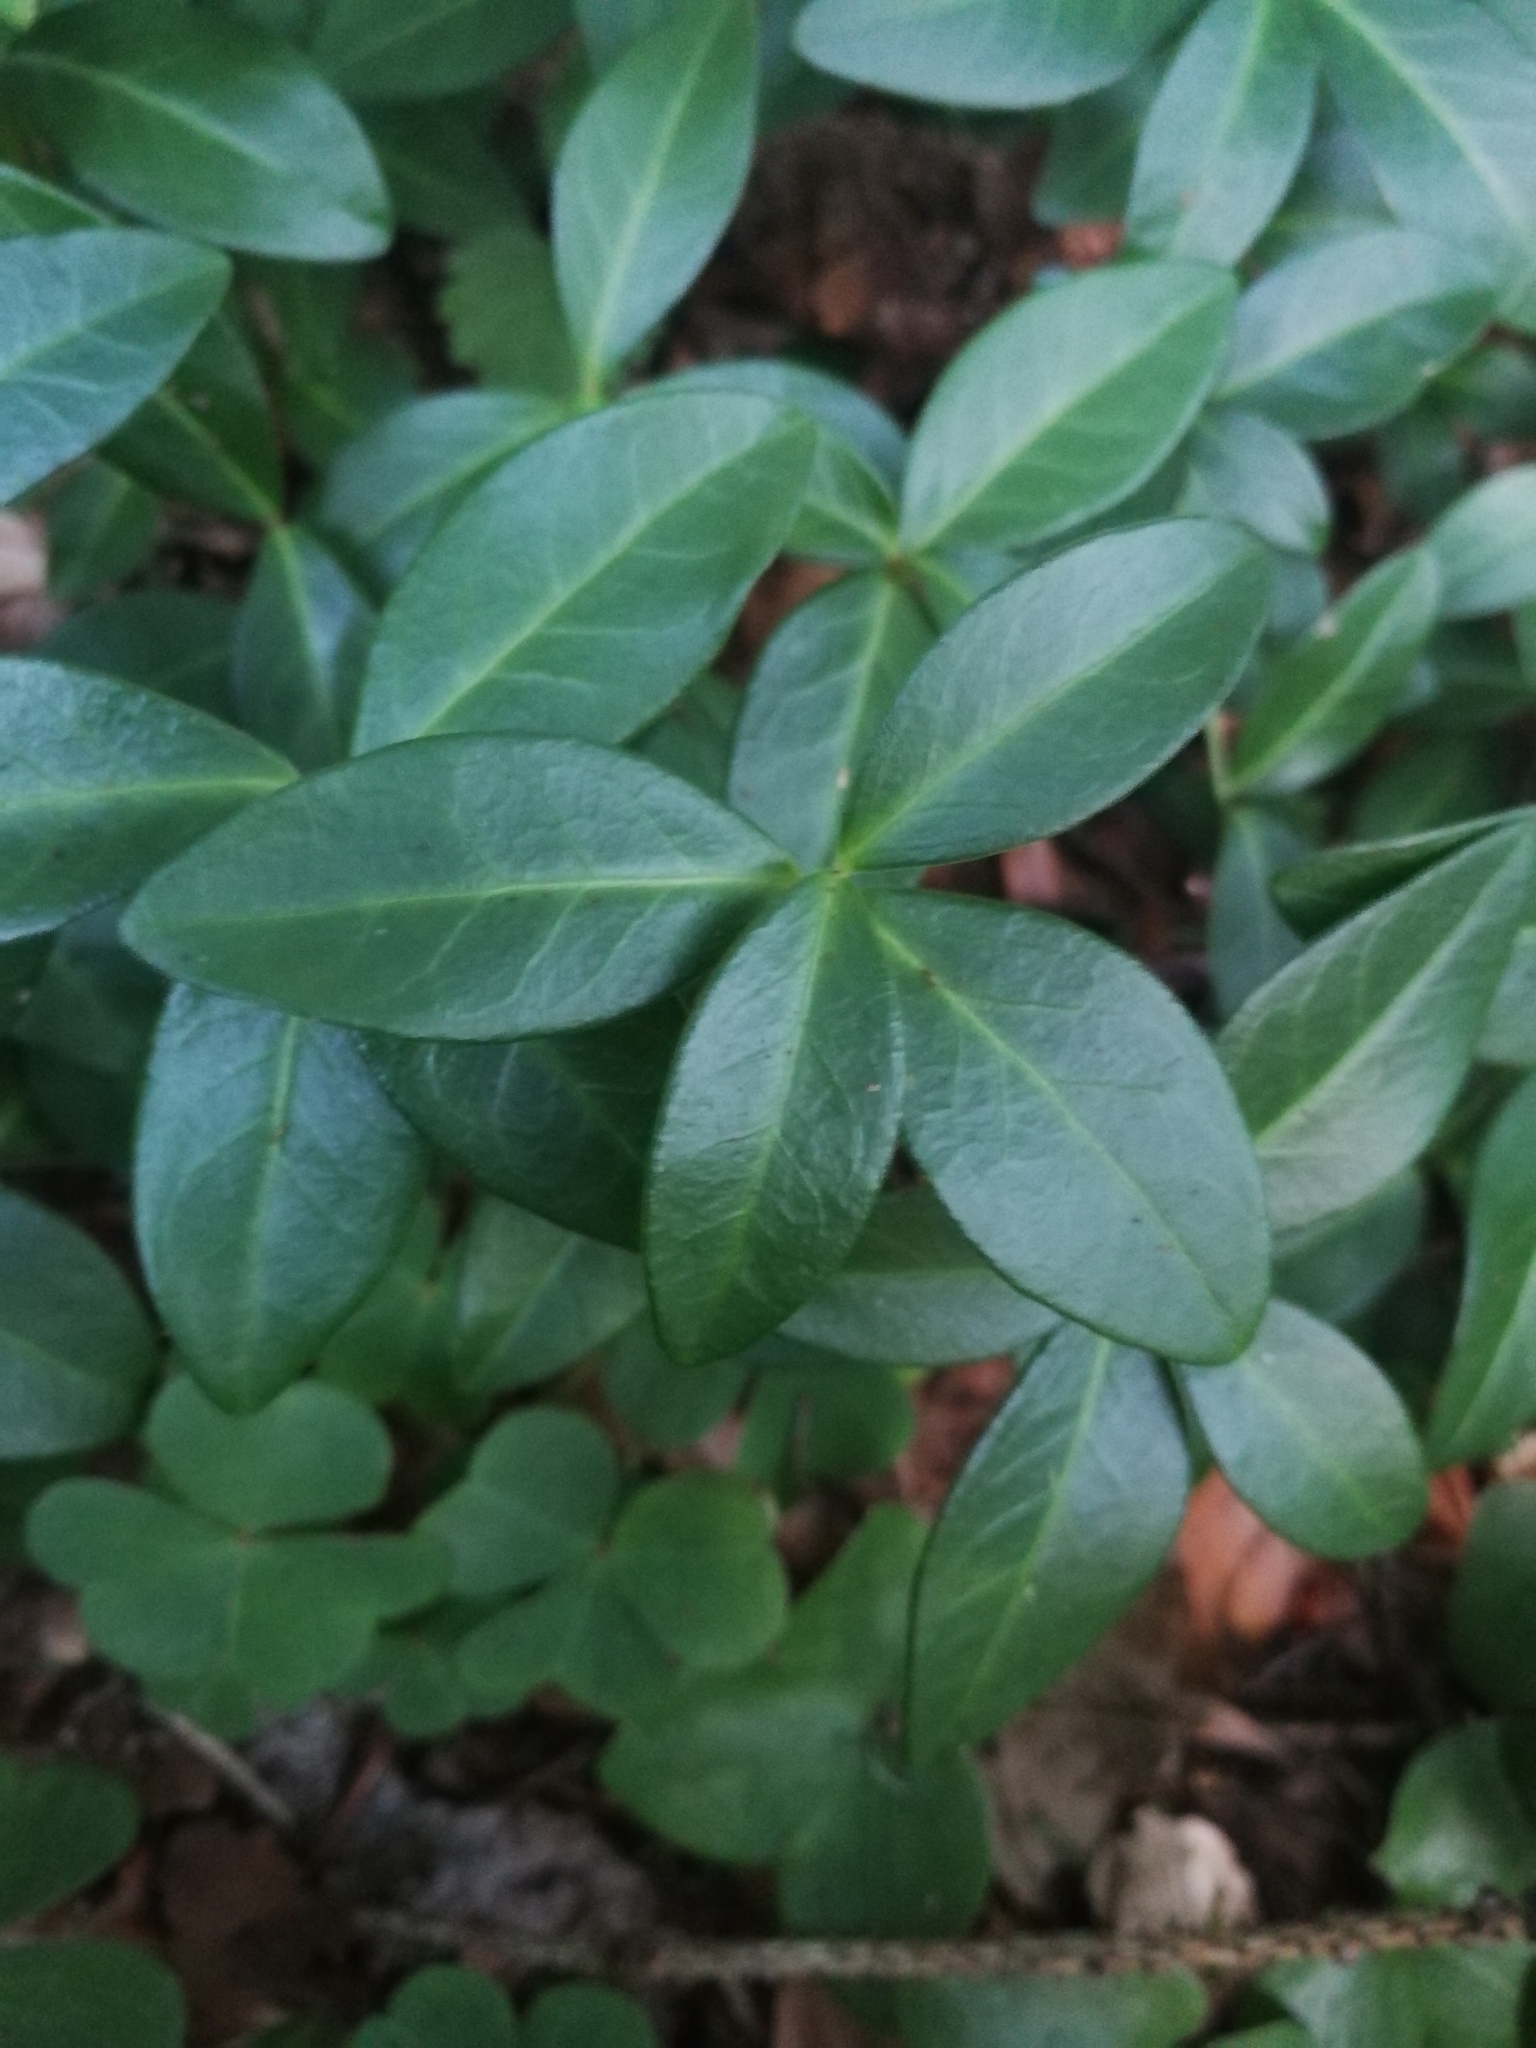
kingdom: Plantae
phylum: Tracheophyta
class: Magnoliopsida
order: Gentianales
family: Apocynaceae
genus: Vinca
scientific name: Vinca minor
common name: Lesser periwinkle
